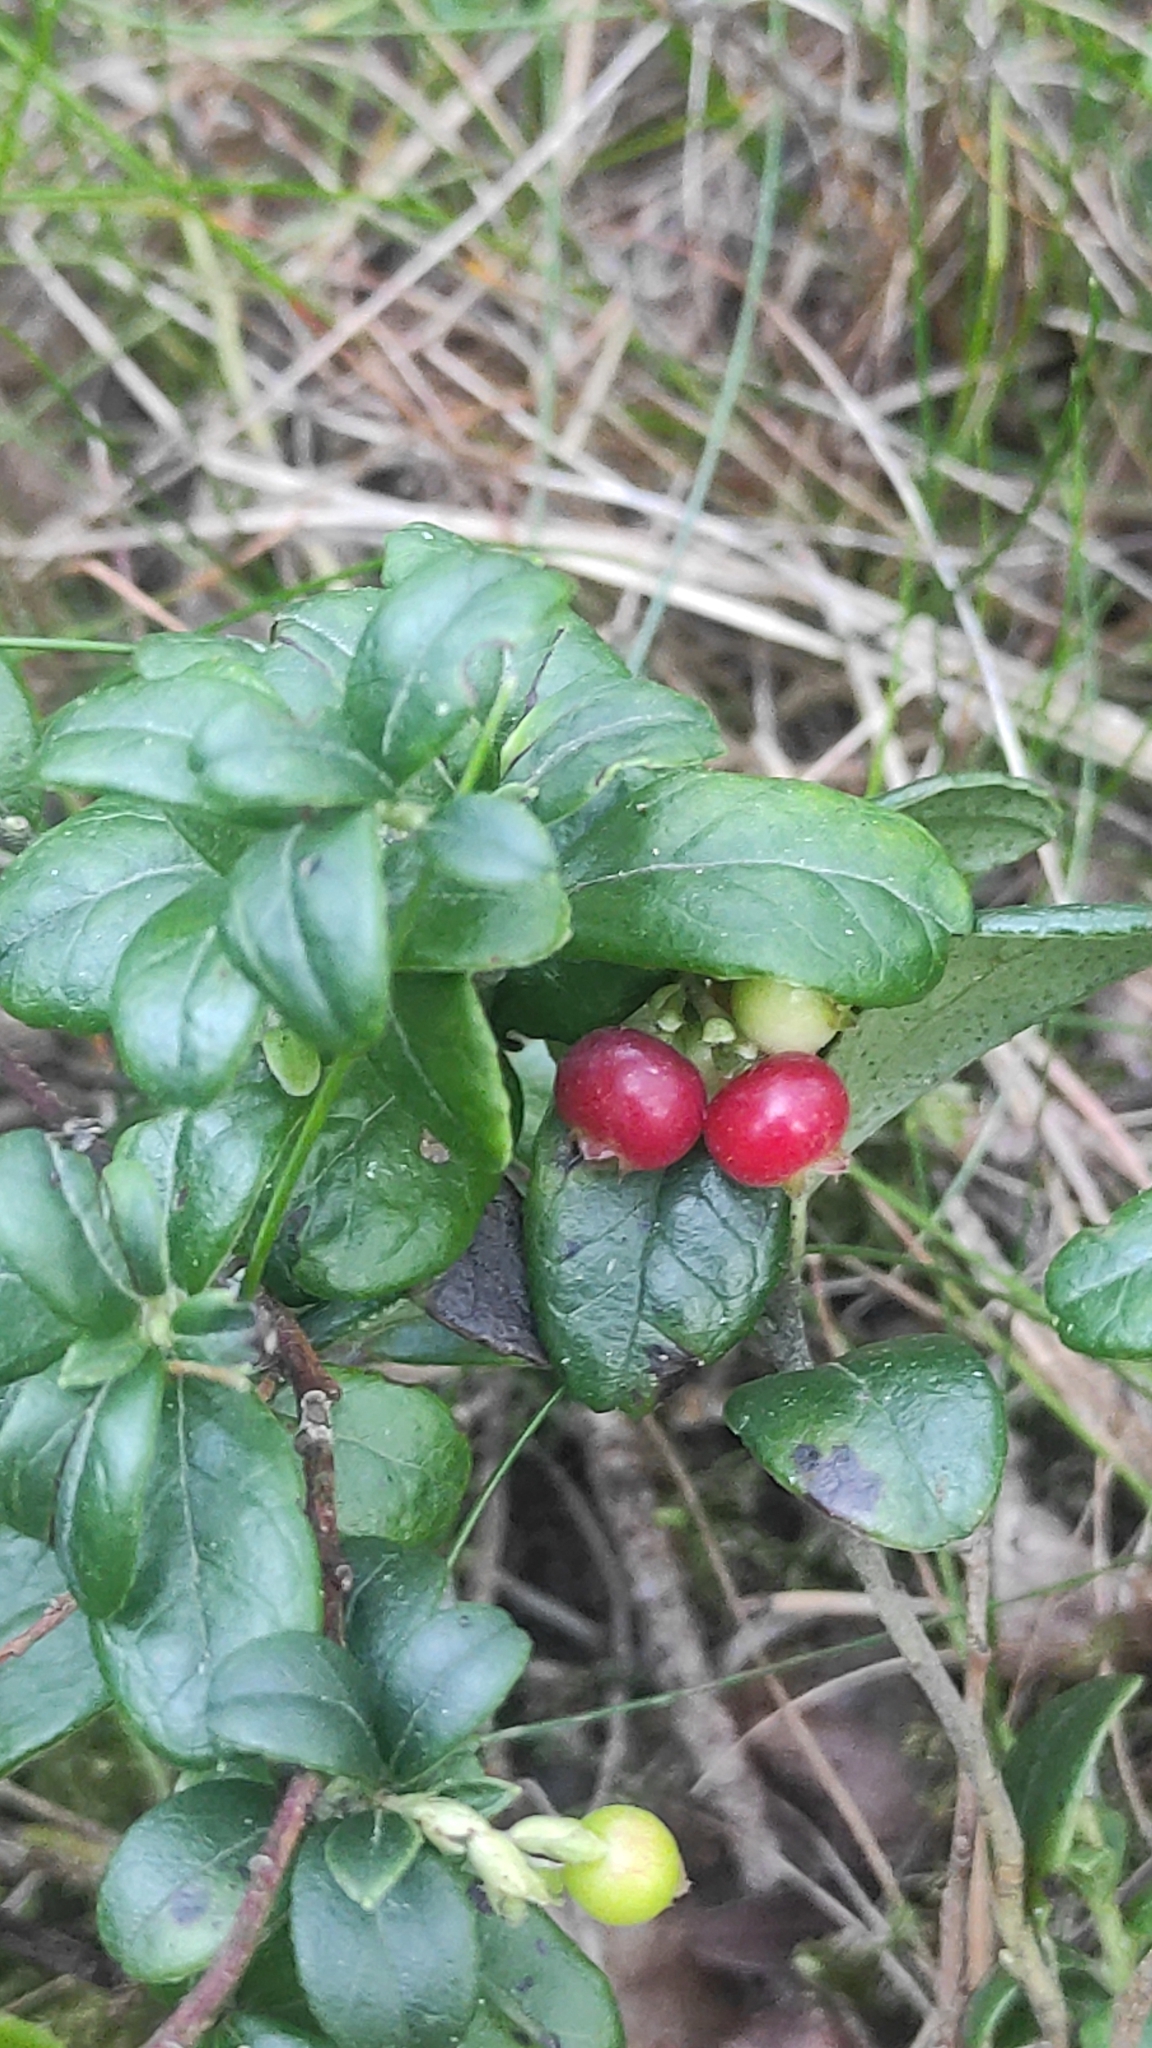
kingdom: Plantae
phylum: Tracheophyta
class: Magnoliopsida
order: Ericales
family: Ericaceae
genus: Vaccinium
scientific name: Vaccinium vitis-idaea
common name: Cowberry
